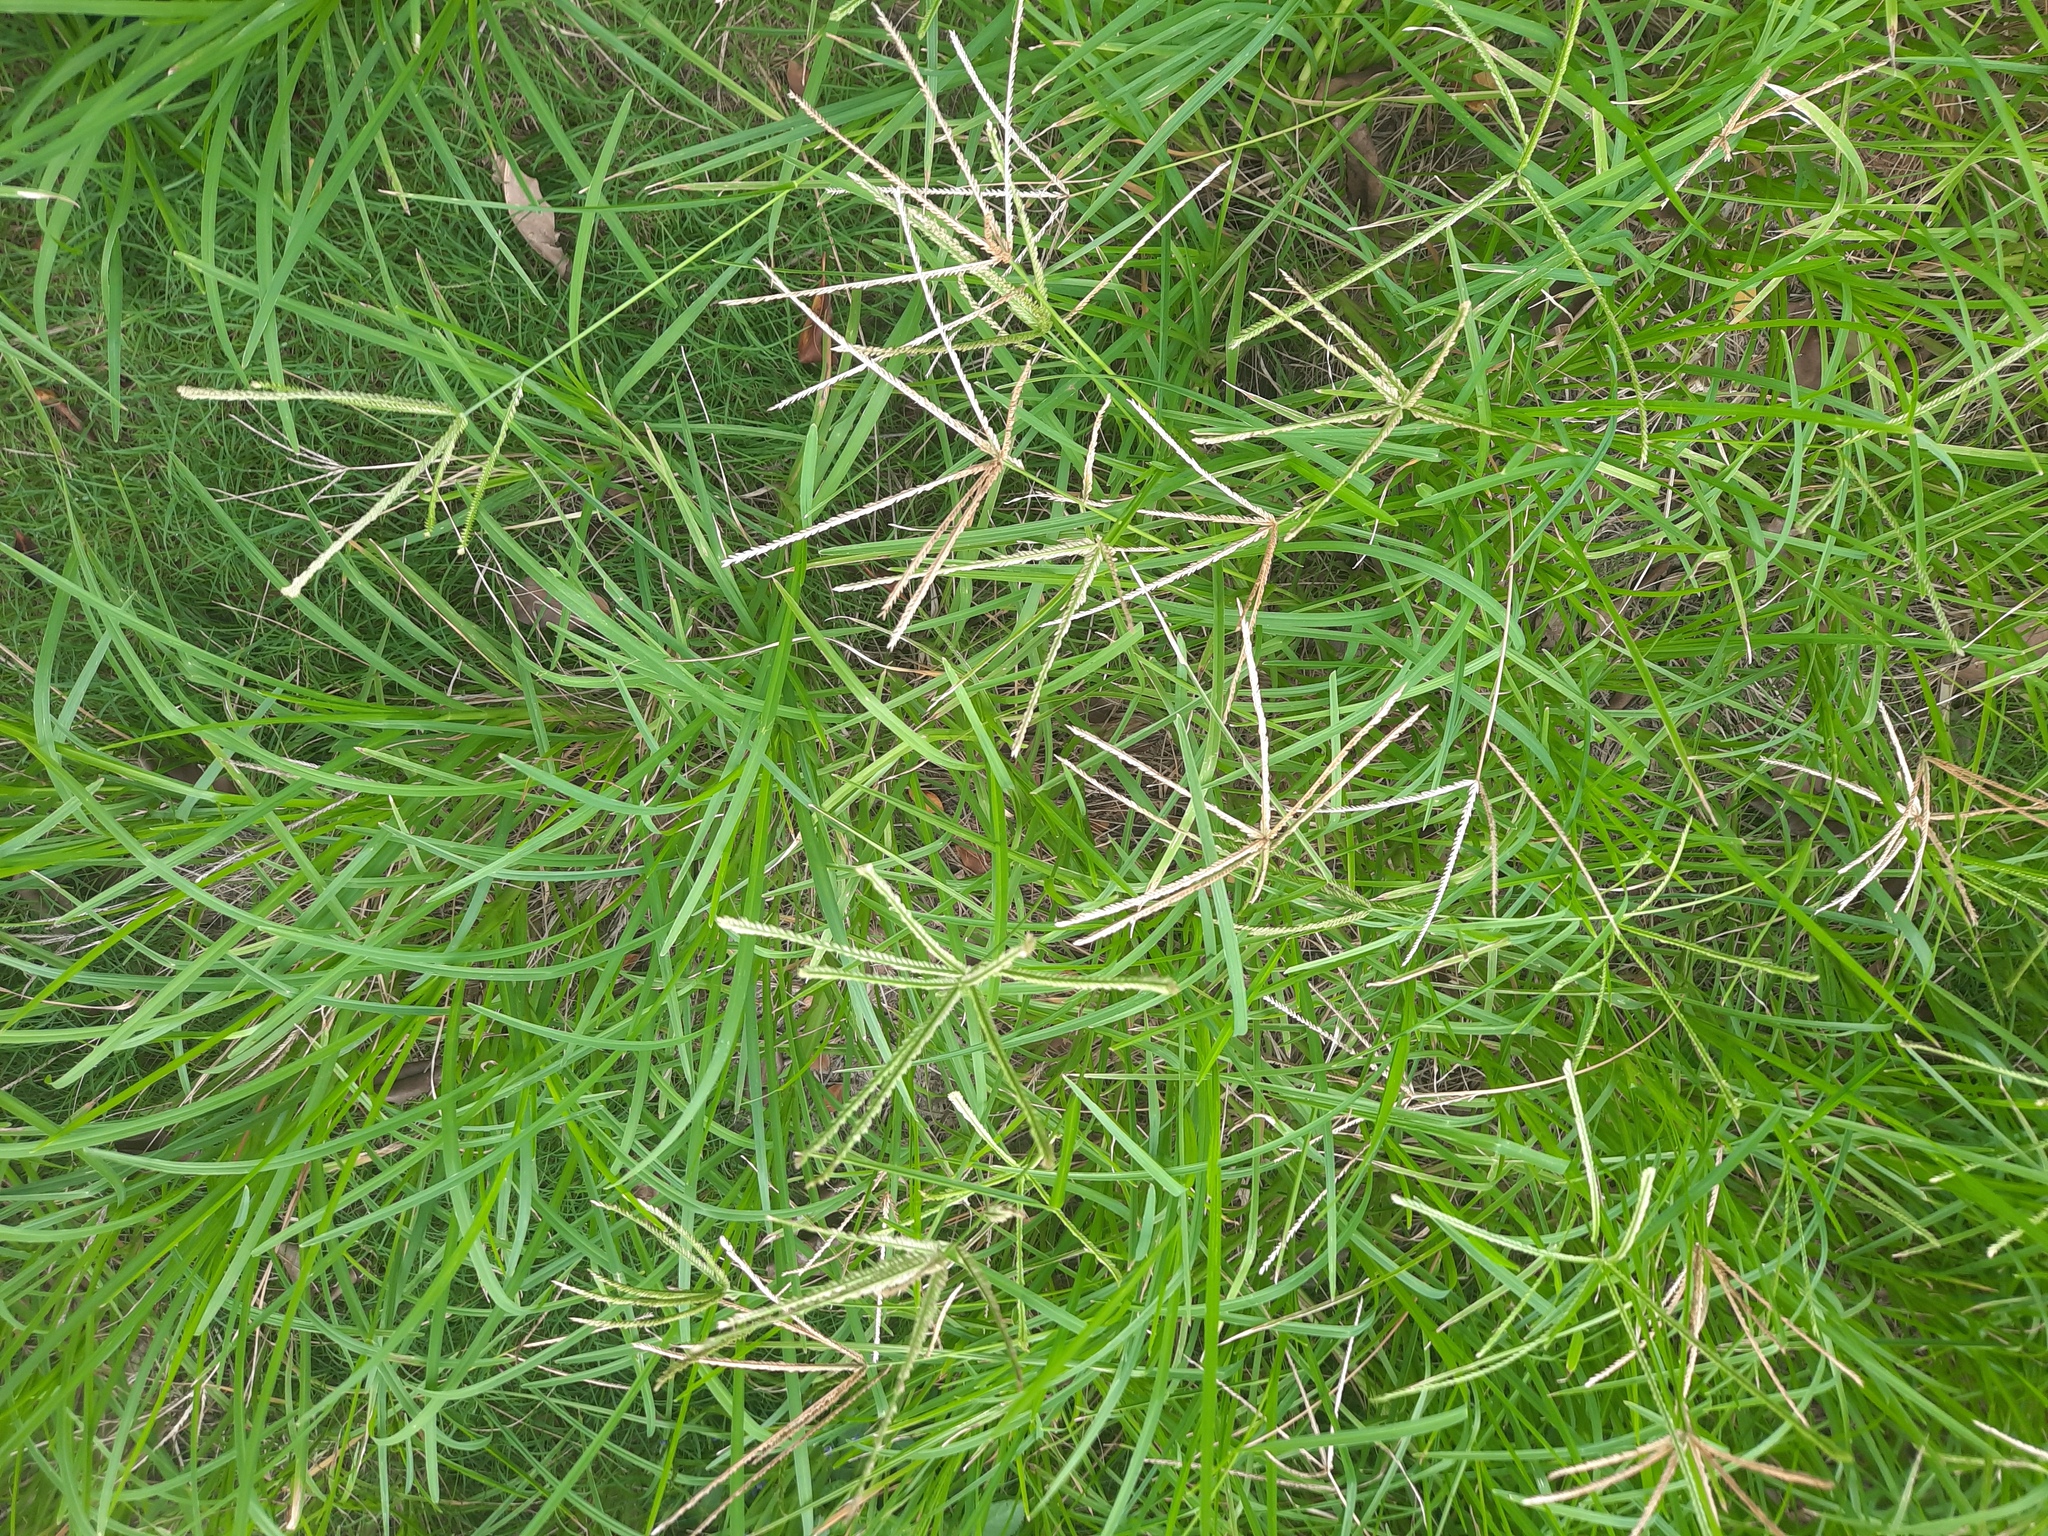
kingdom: Plantae
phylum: Tracheophyta
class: Liliopsida
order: Poales
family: Poaceae
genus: Cynodon
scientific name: Cynodon dactylon
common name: Bermuda grass
